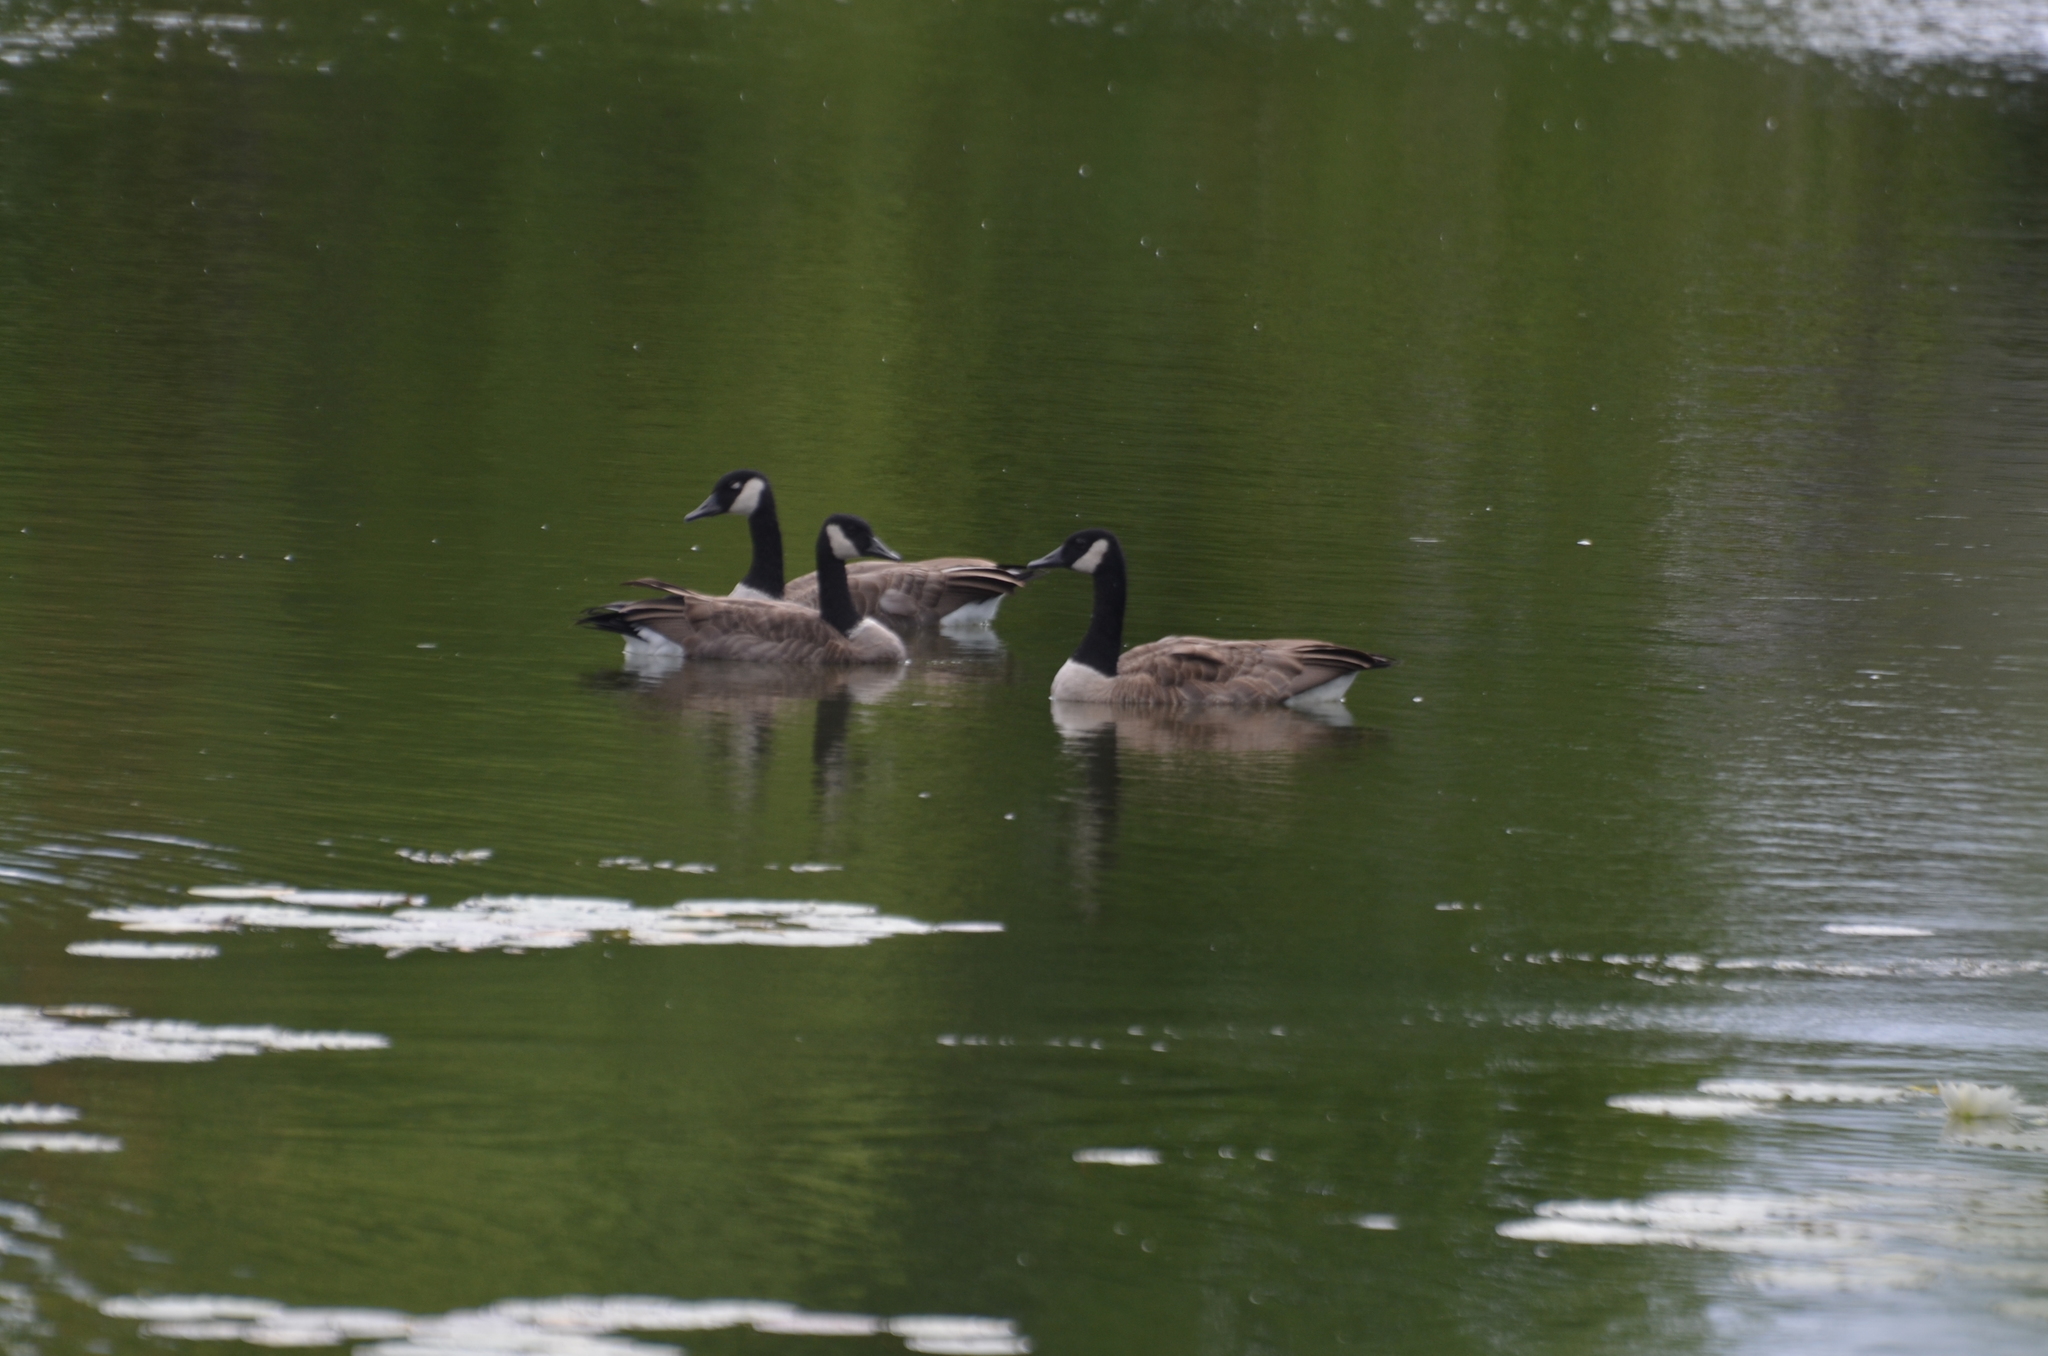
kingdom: Animalia
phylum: Chordata
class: Aves
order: Anseriformes
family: Anatidae
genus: Branta
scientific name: Branta canadensis
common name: Canada goose
